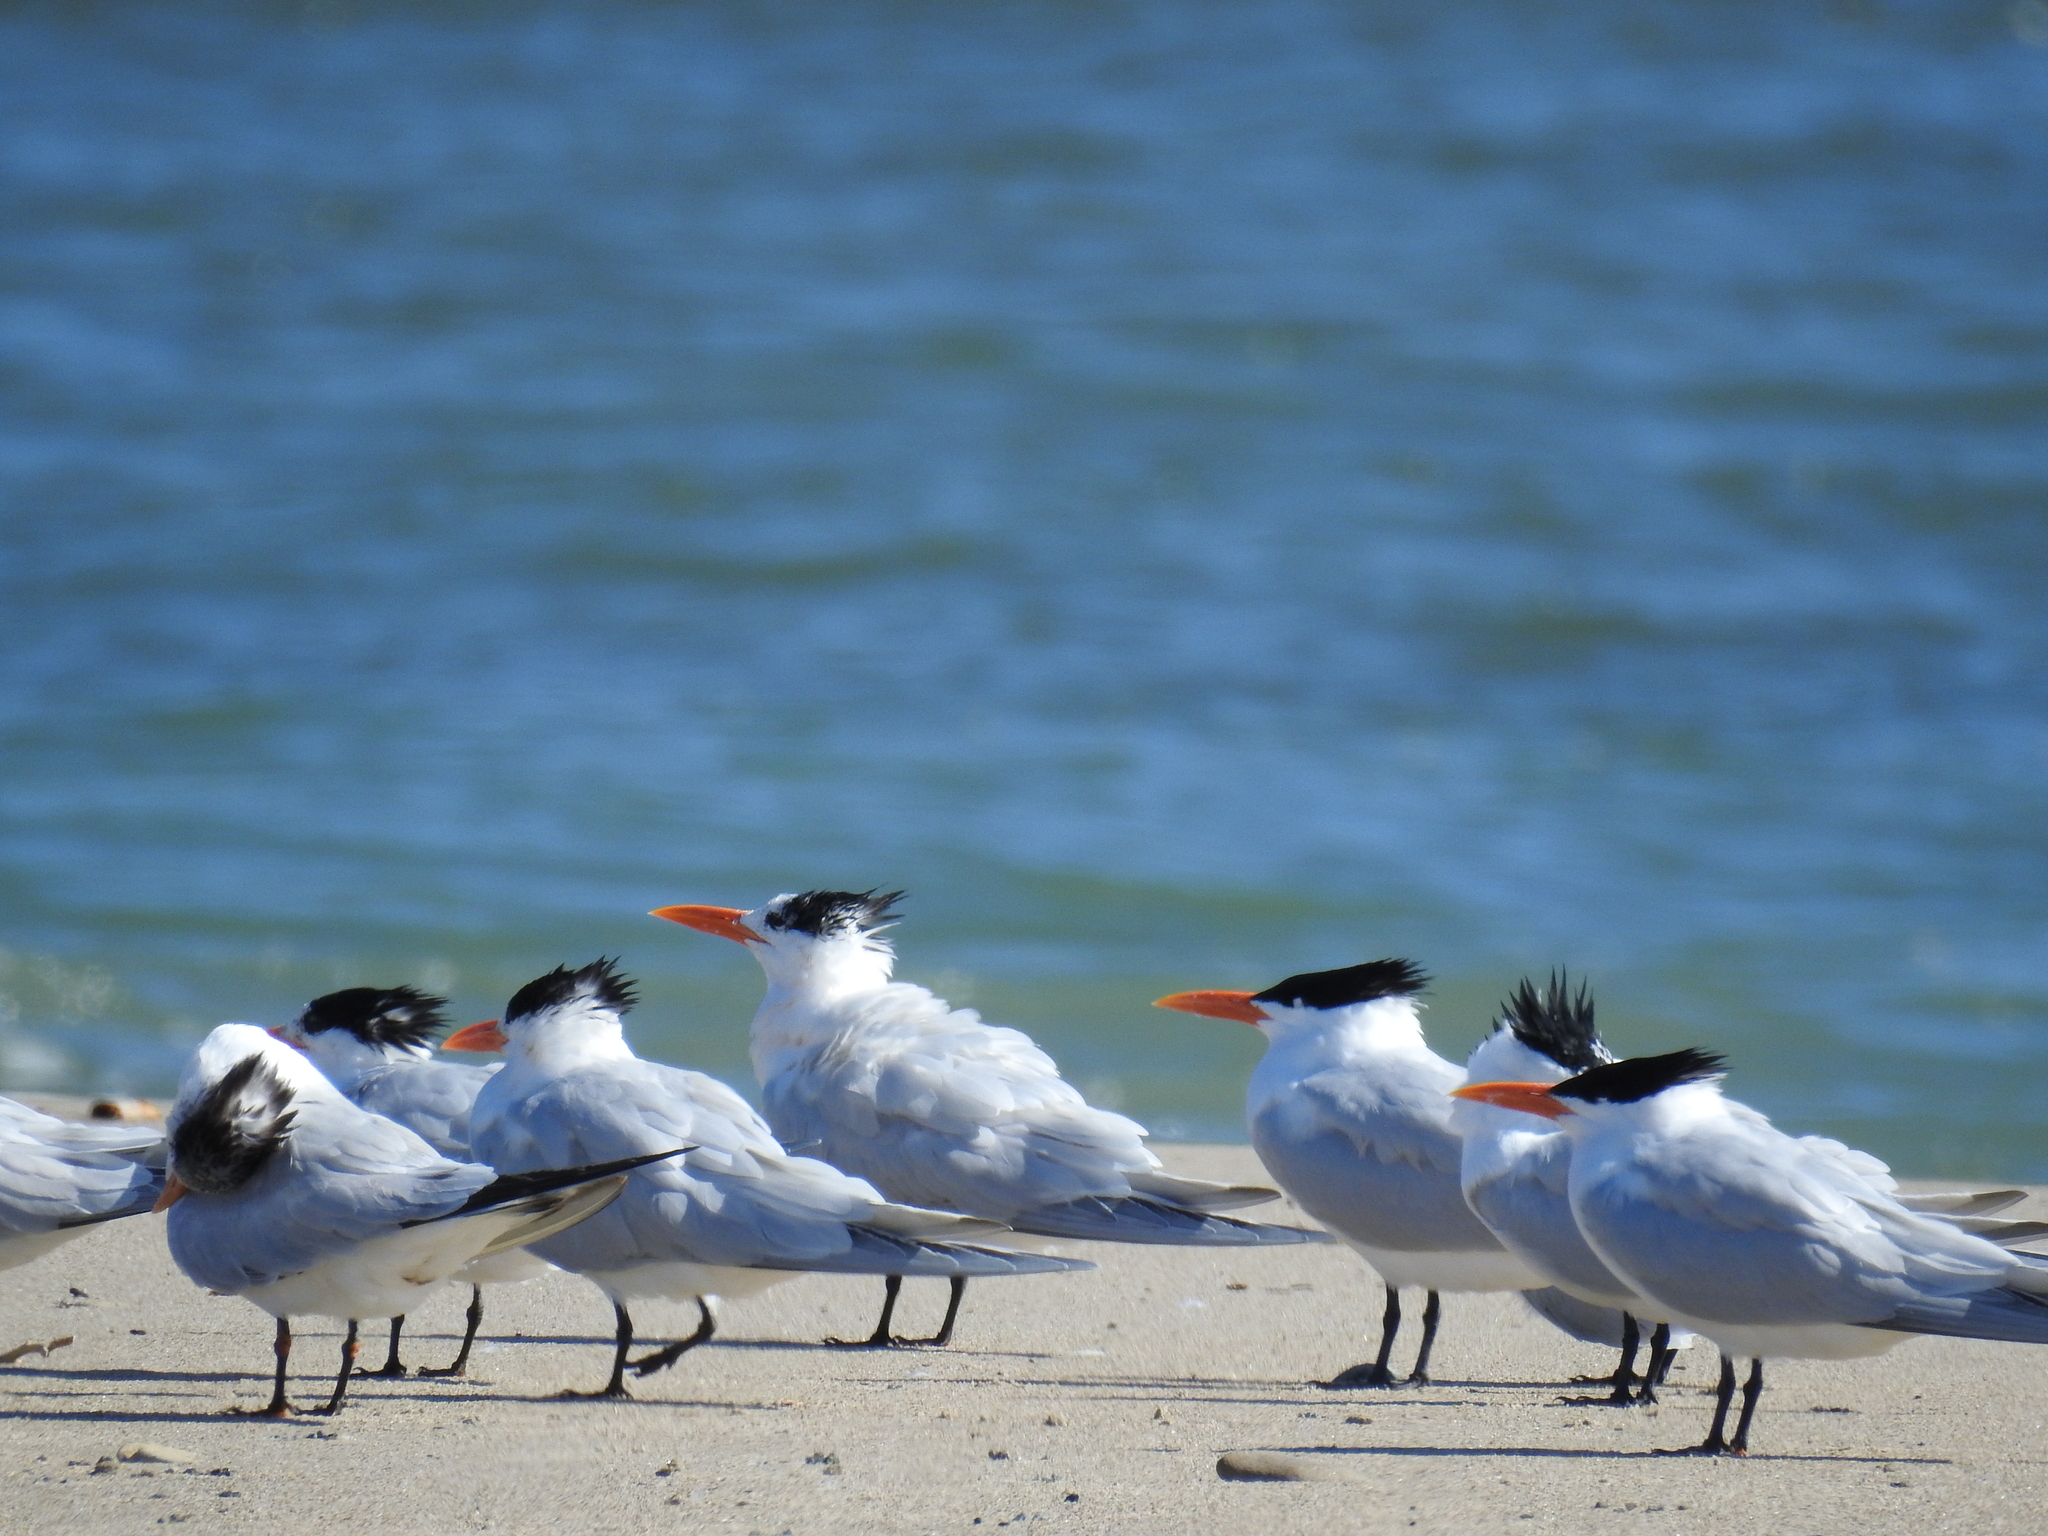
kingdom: Animalia
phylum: Chordata
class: Aves
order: Charadriiformes
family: Laridae
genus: Thalasseus
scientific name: Thalasseus maximus
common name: Royal tern
